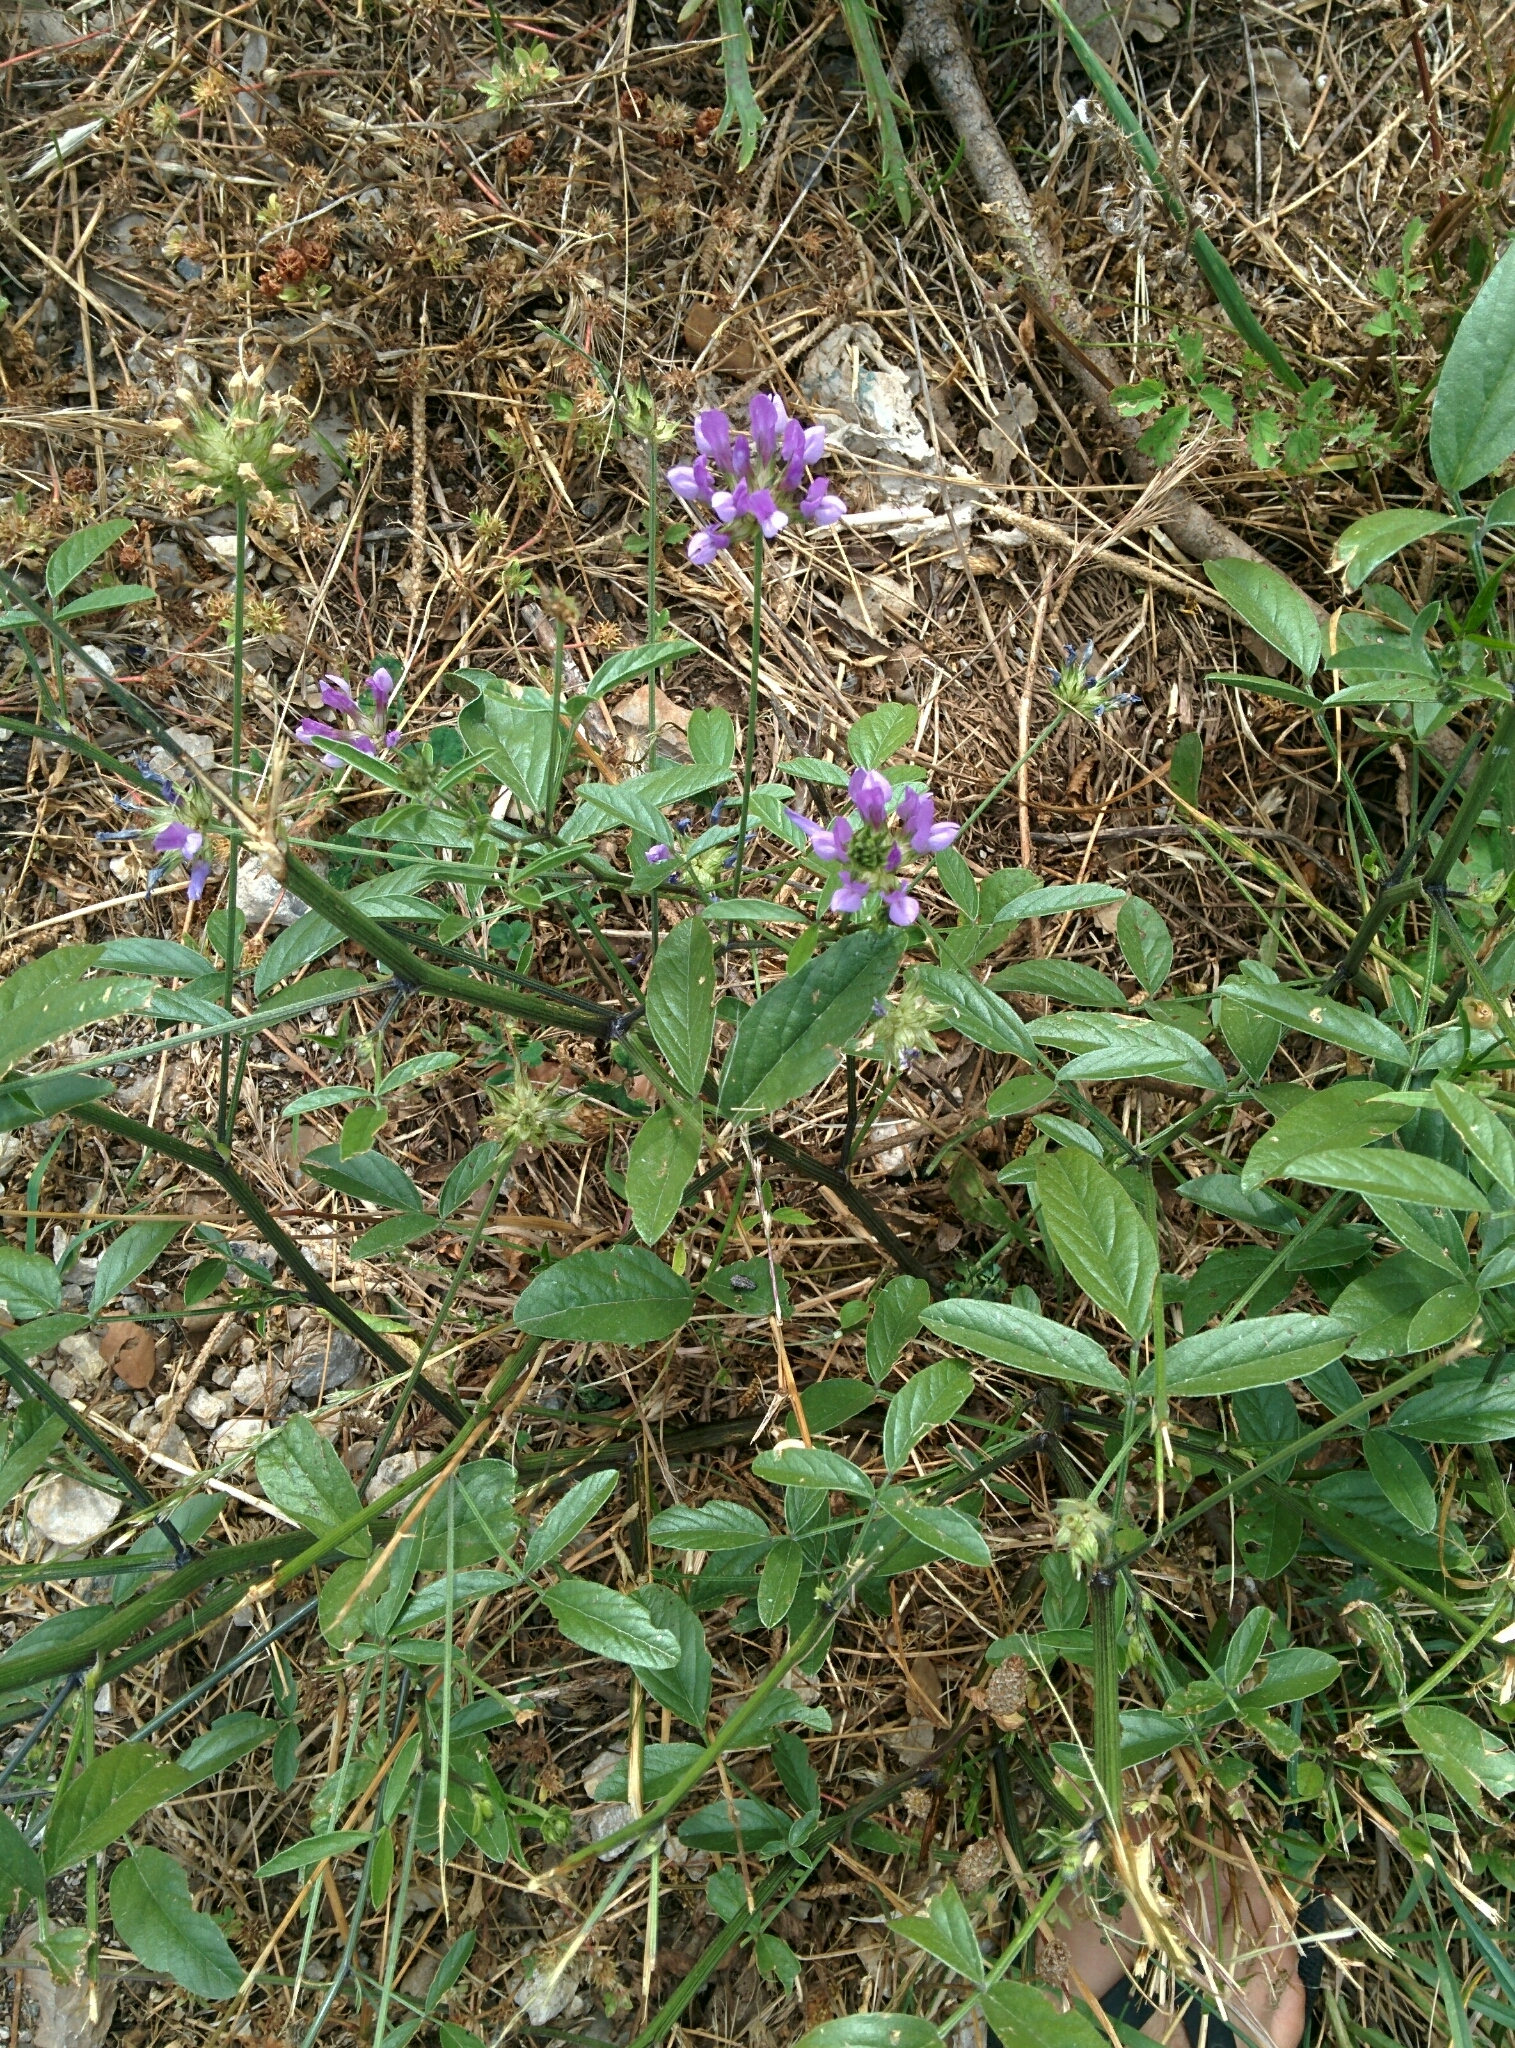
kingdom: Plantae
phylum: Tracheophyta
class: Magnoliopsida
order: Fabales
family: Fabaceae
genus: Bituminaria
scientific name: Bituminaria bituminosa
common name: Arabian pea
